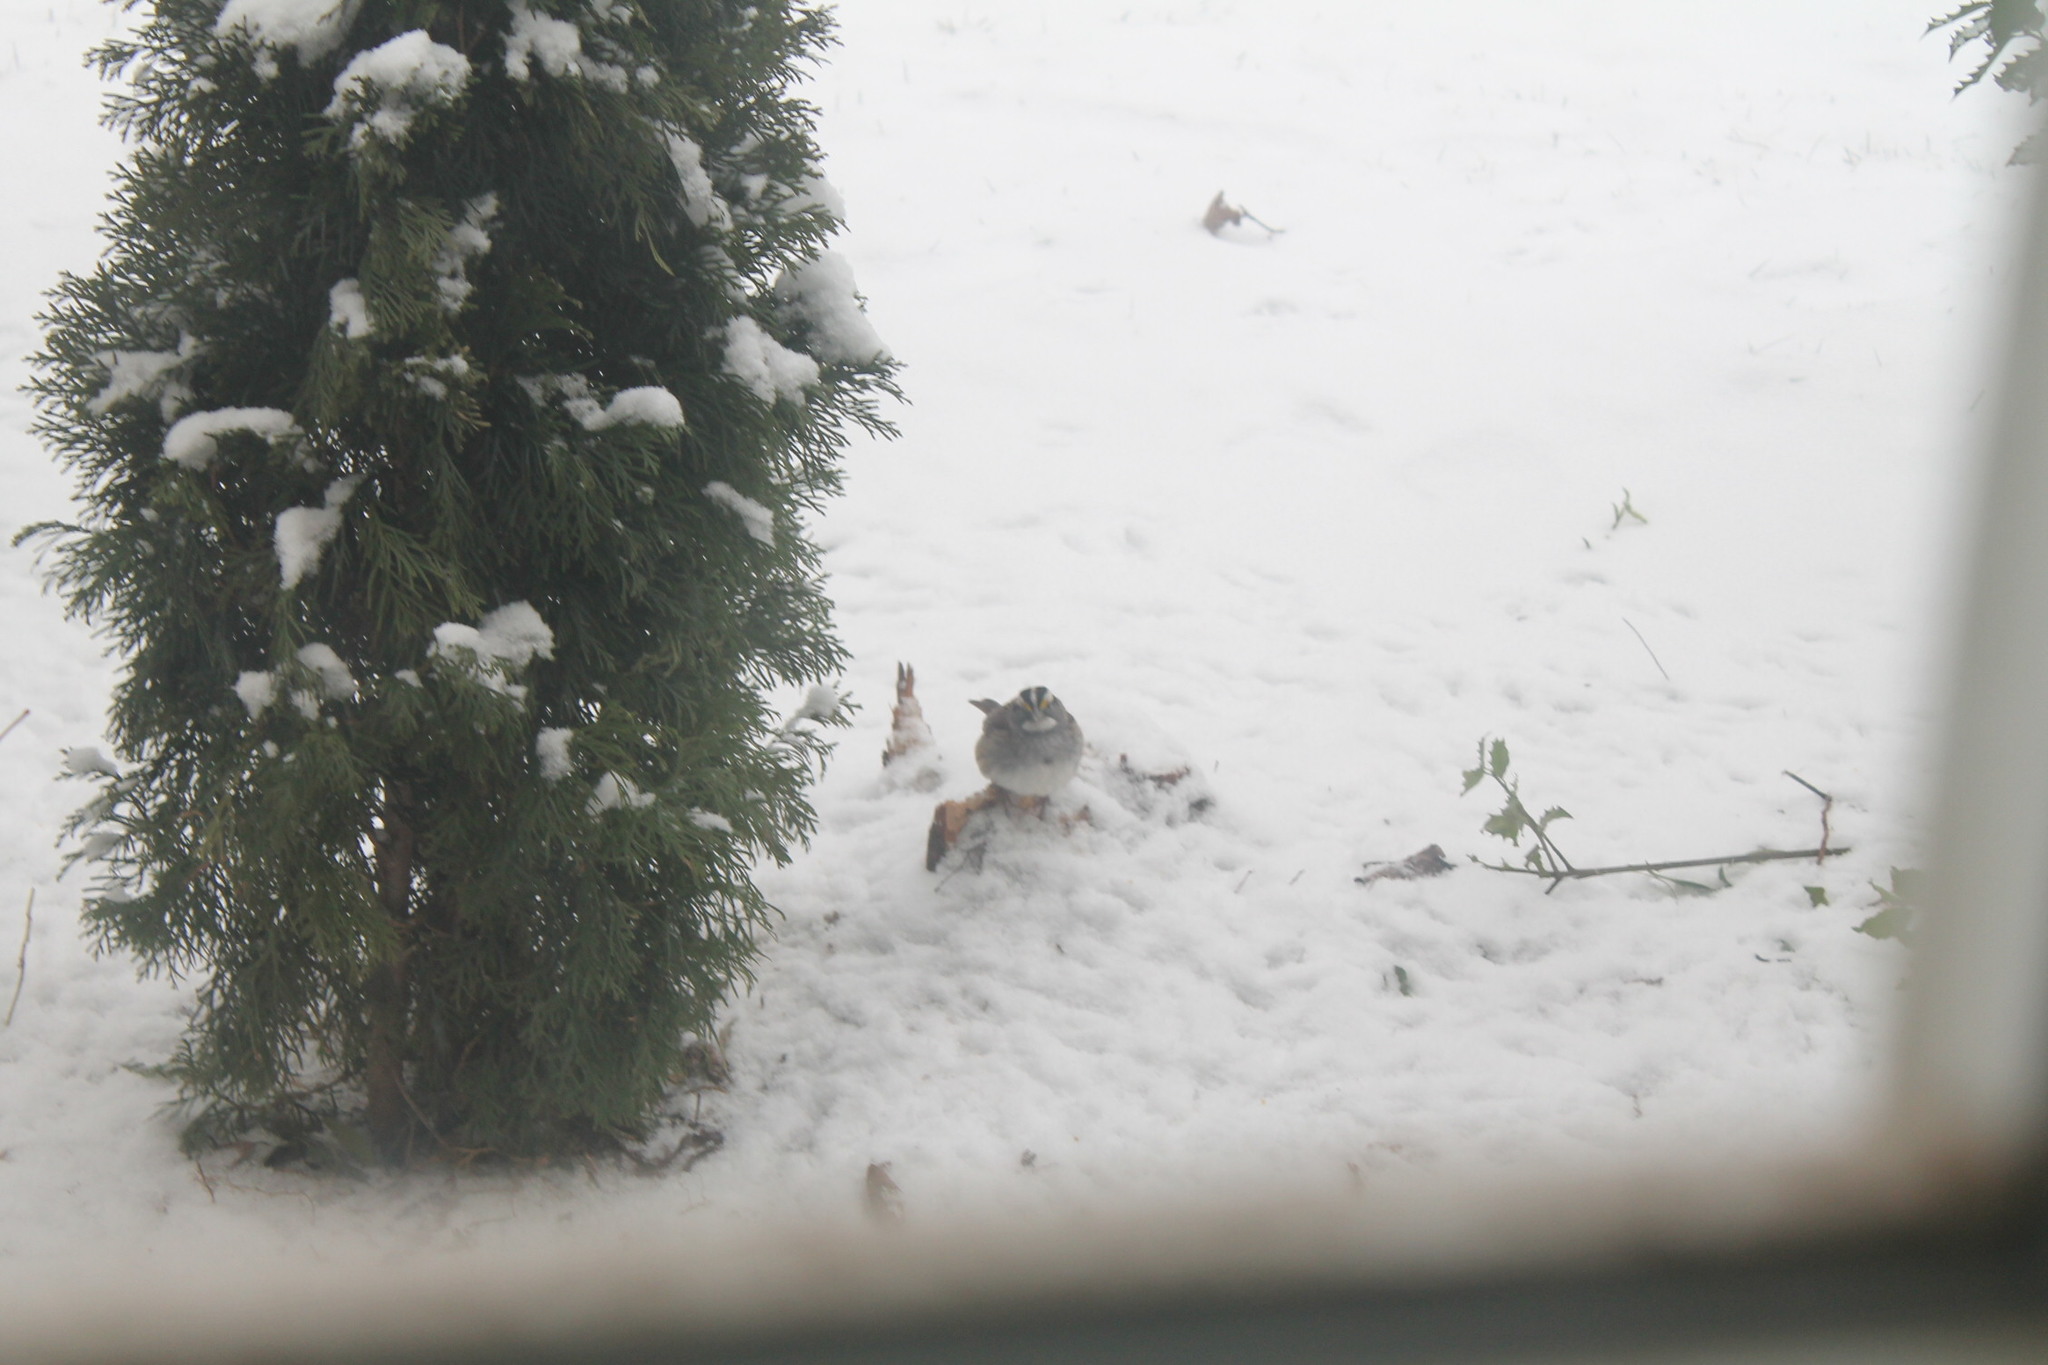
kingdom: Animalia
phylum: Chordata
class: Aves
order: Passeriformes
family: Passerellidae
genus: Zonotrichia
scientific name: Zonotrichia albicollis
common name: White-throated sparrow
